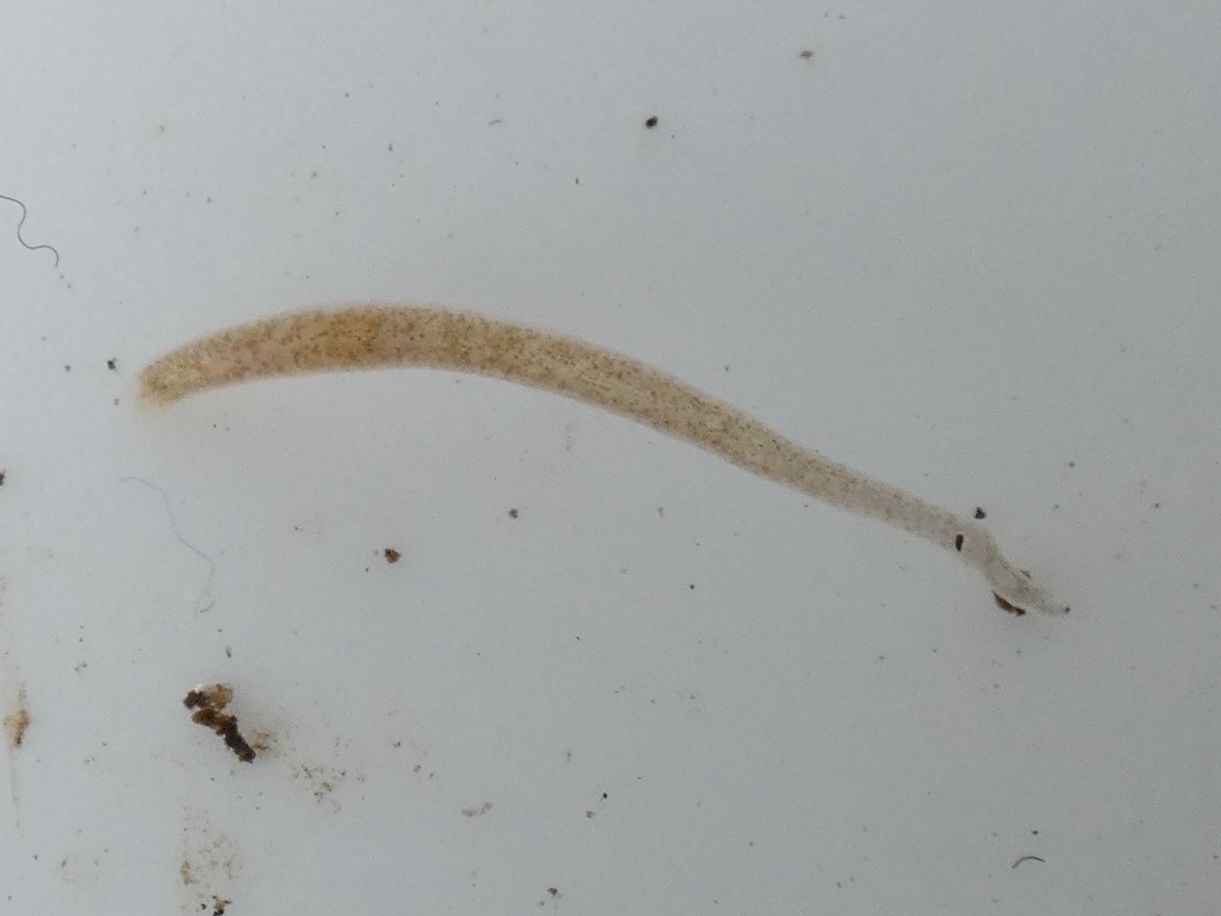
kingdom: Animalia
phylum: Annelida
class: Clitellata
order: Rhynchobdellida
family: Glossiphoniidae
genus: Helobdella
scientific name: Helobdella stagnalis
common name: Biocular leech
